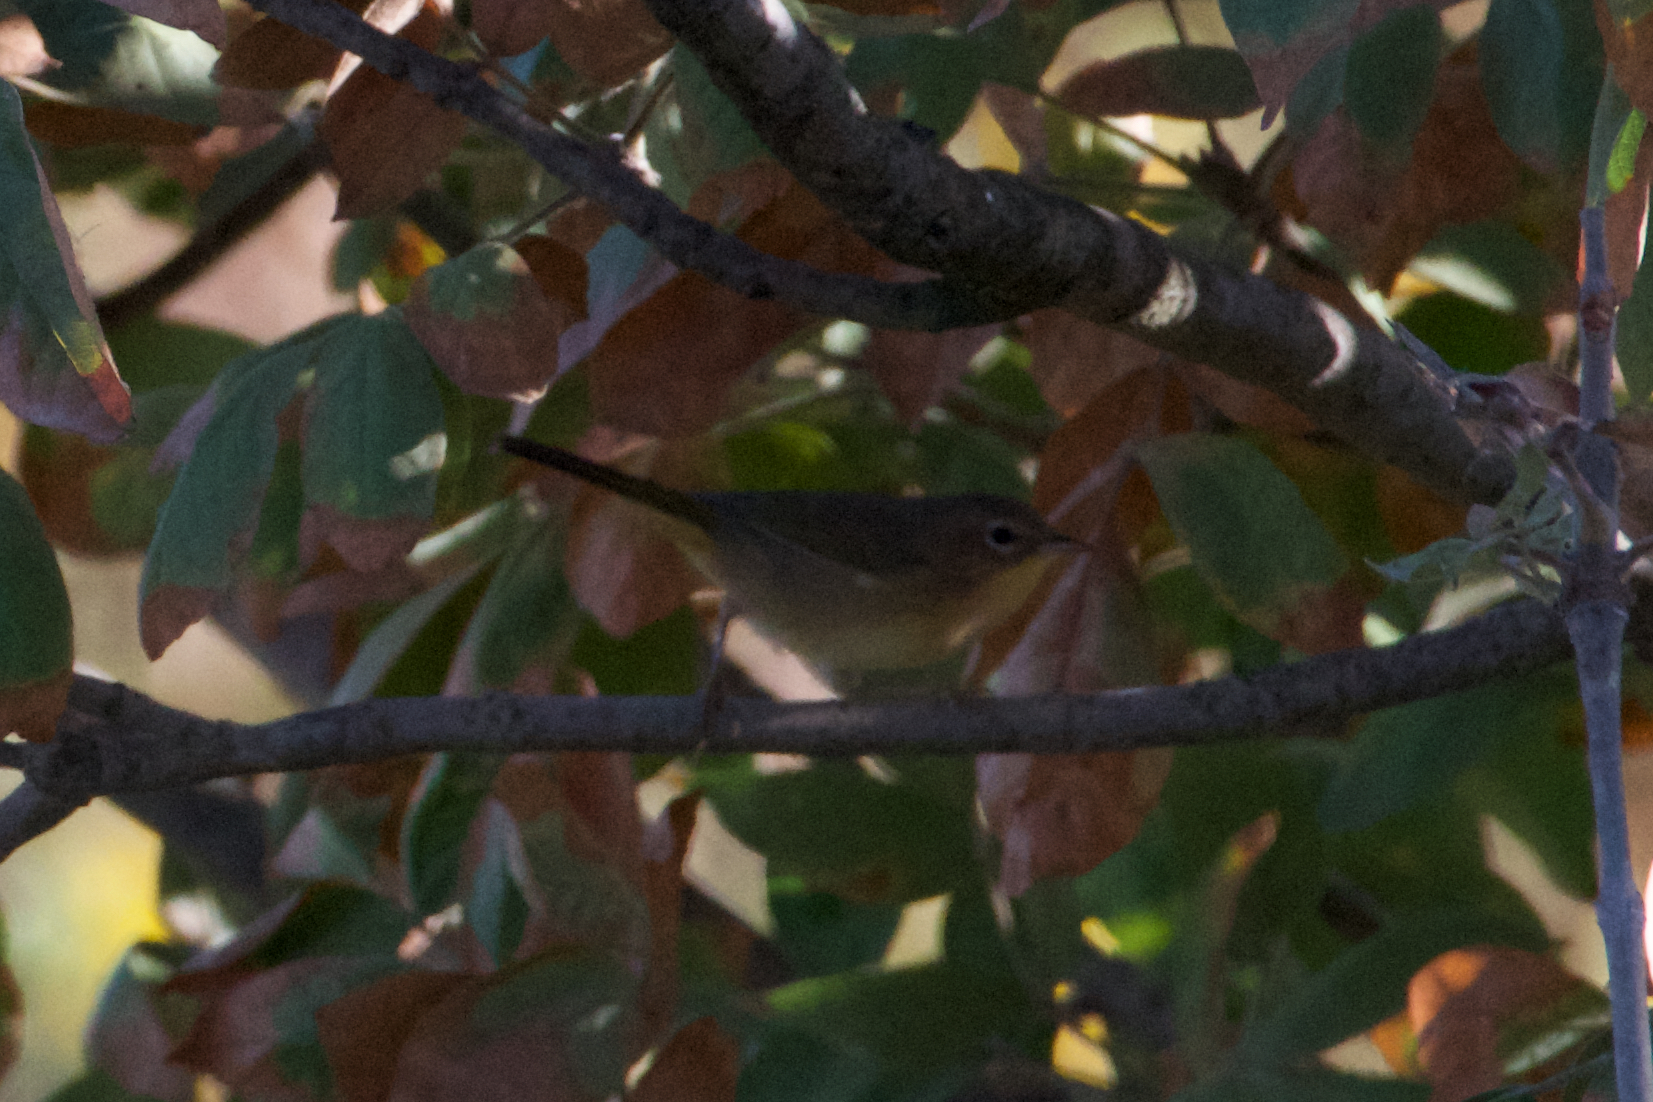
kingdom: Animalia
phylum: Chordata
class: Aves
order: Passeriformes
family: Parulidae
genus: Geothlypis
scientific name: Geothlypis trichas
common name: Common yellowthroat
